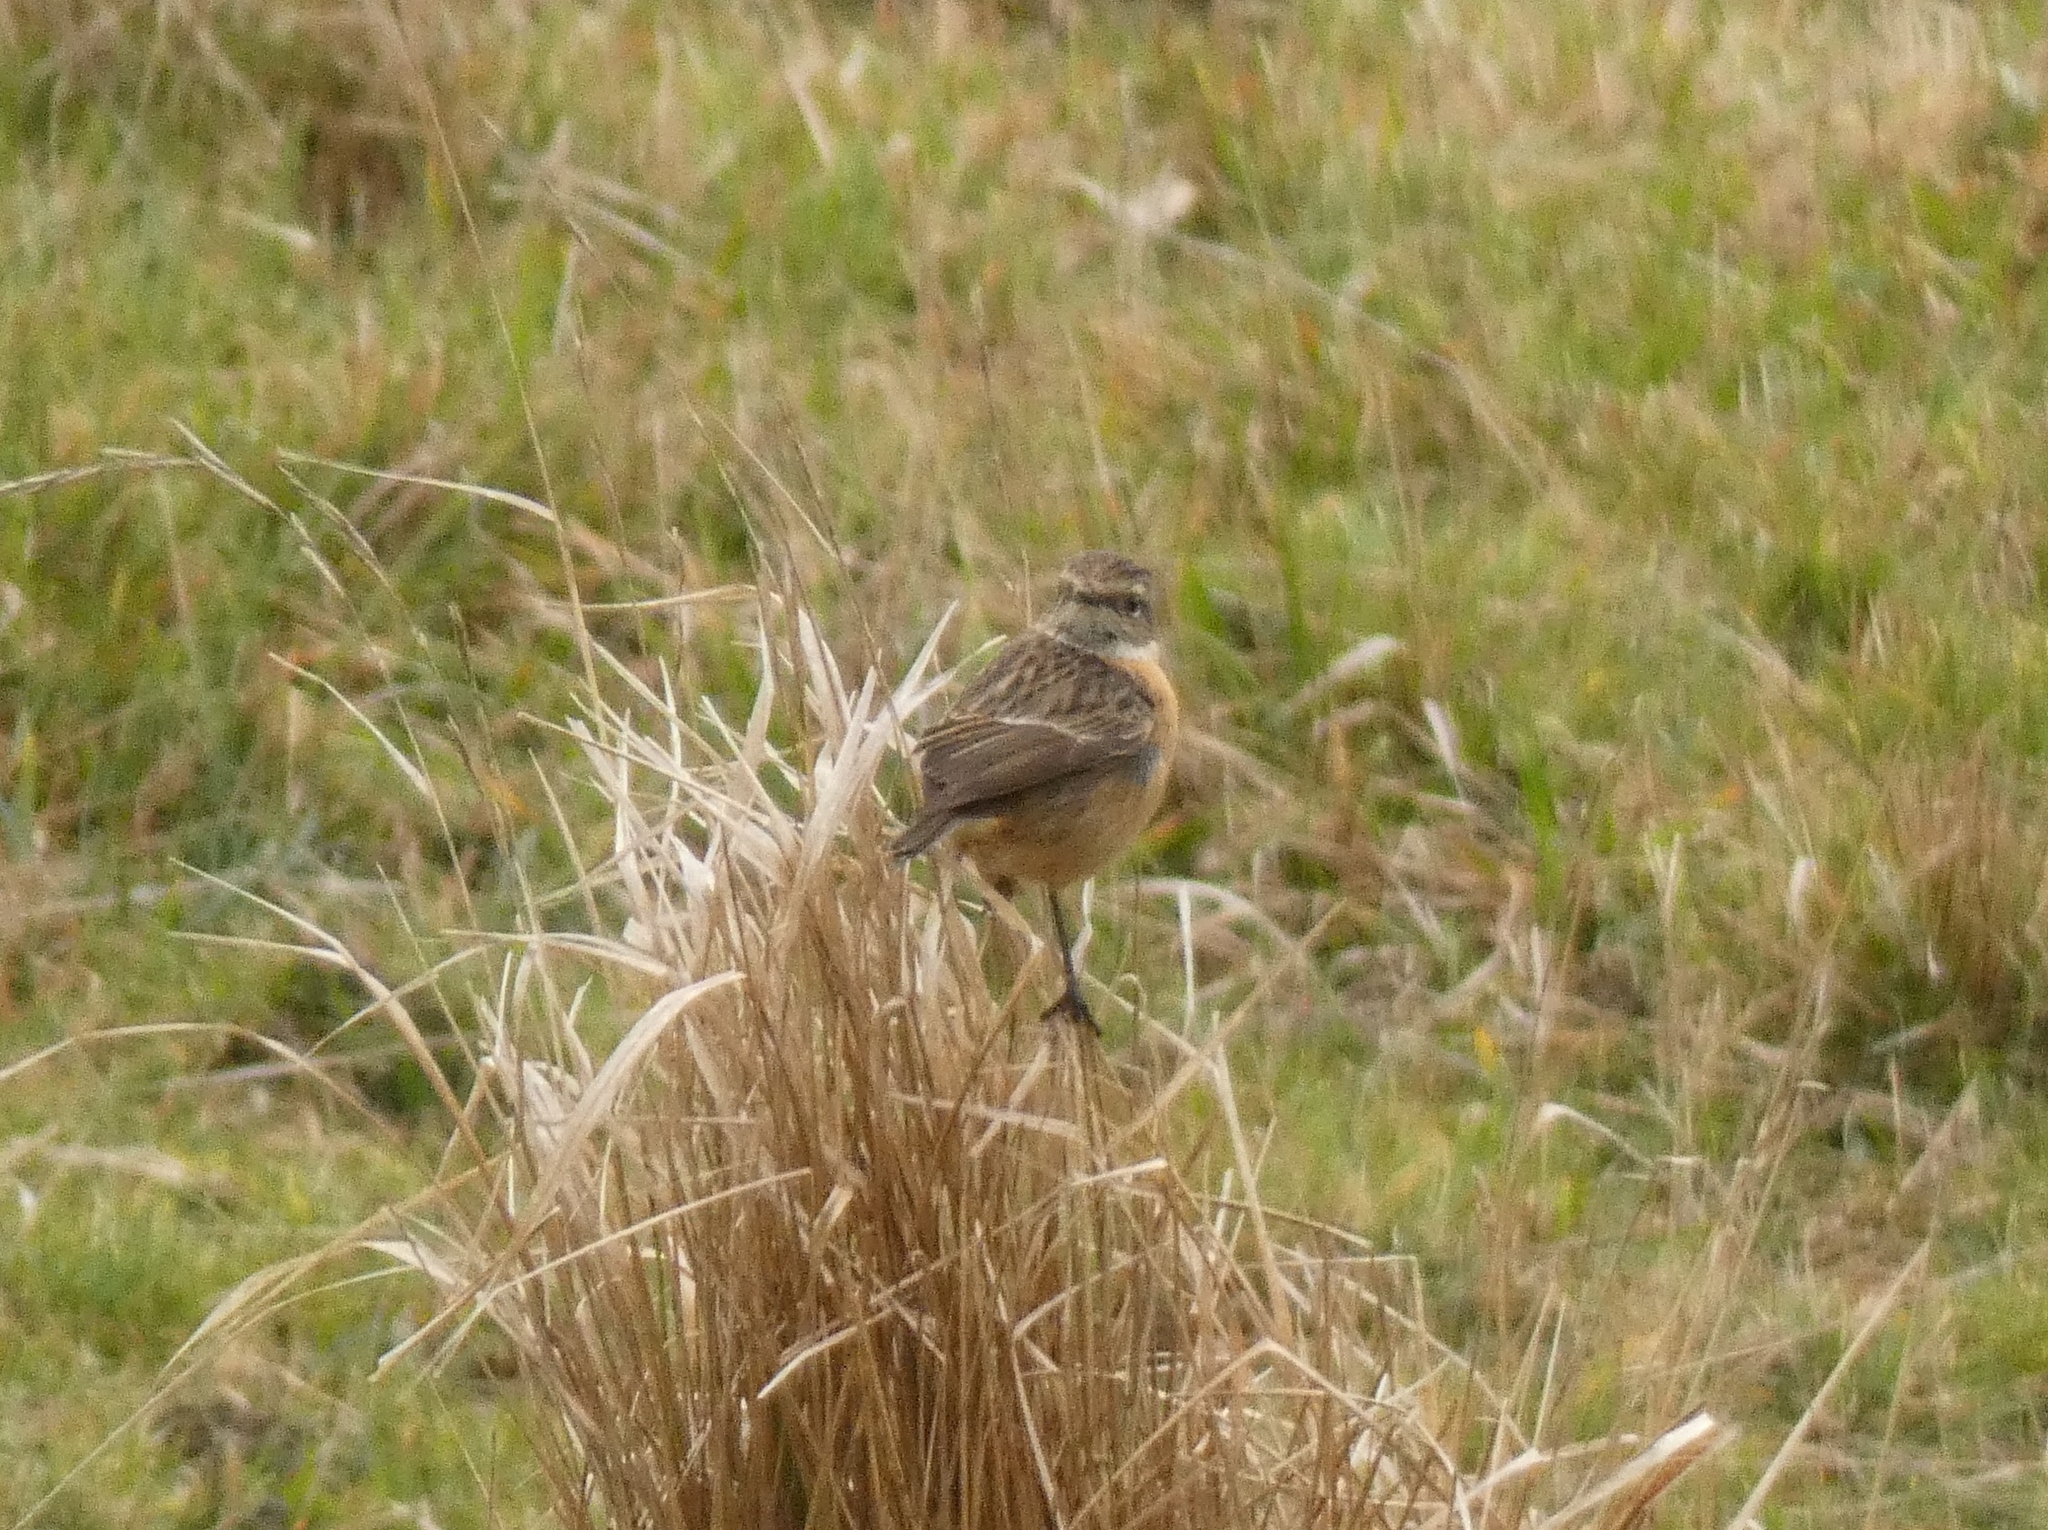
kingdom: Animalia
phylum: Chordata
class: Aves
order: Passeriformes
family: Muscicapidae
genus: Saxicola
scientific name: Saxicola rubicola
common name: European stonechat
